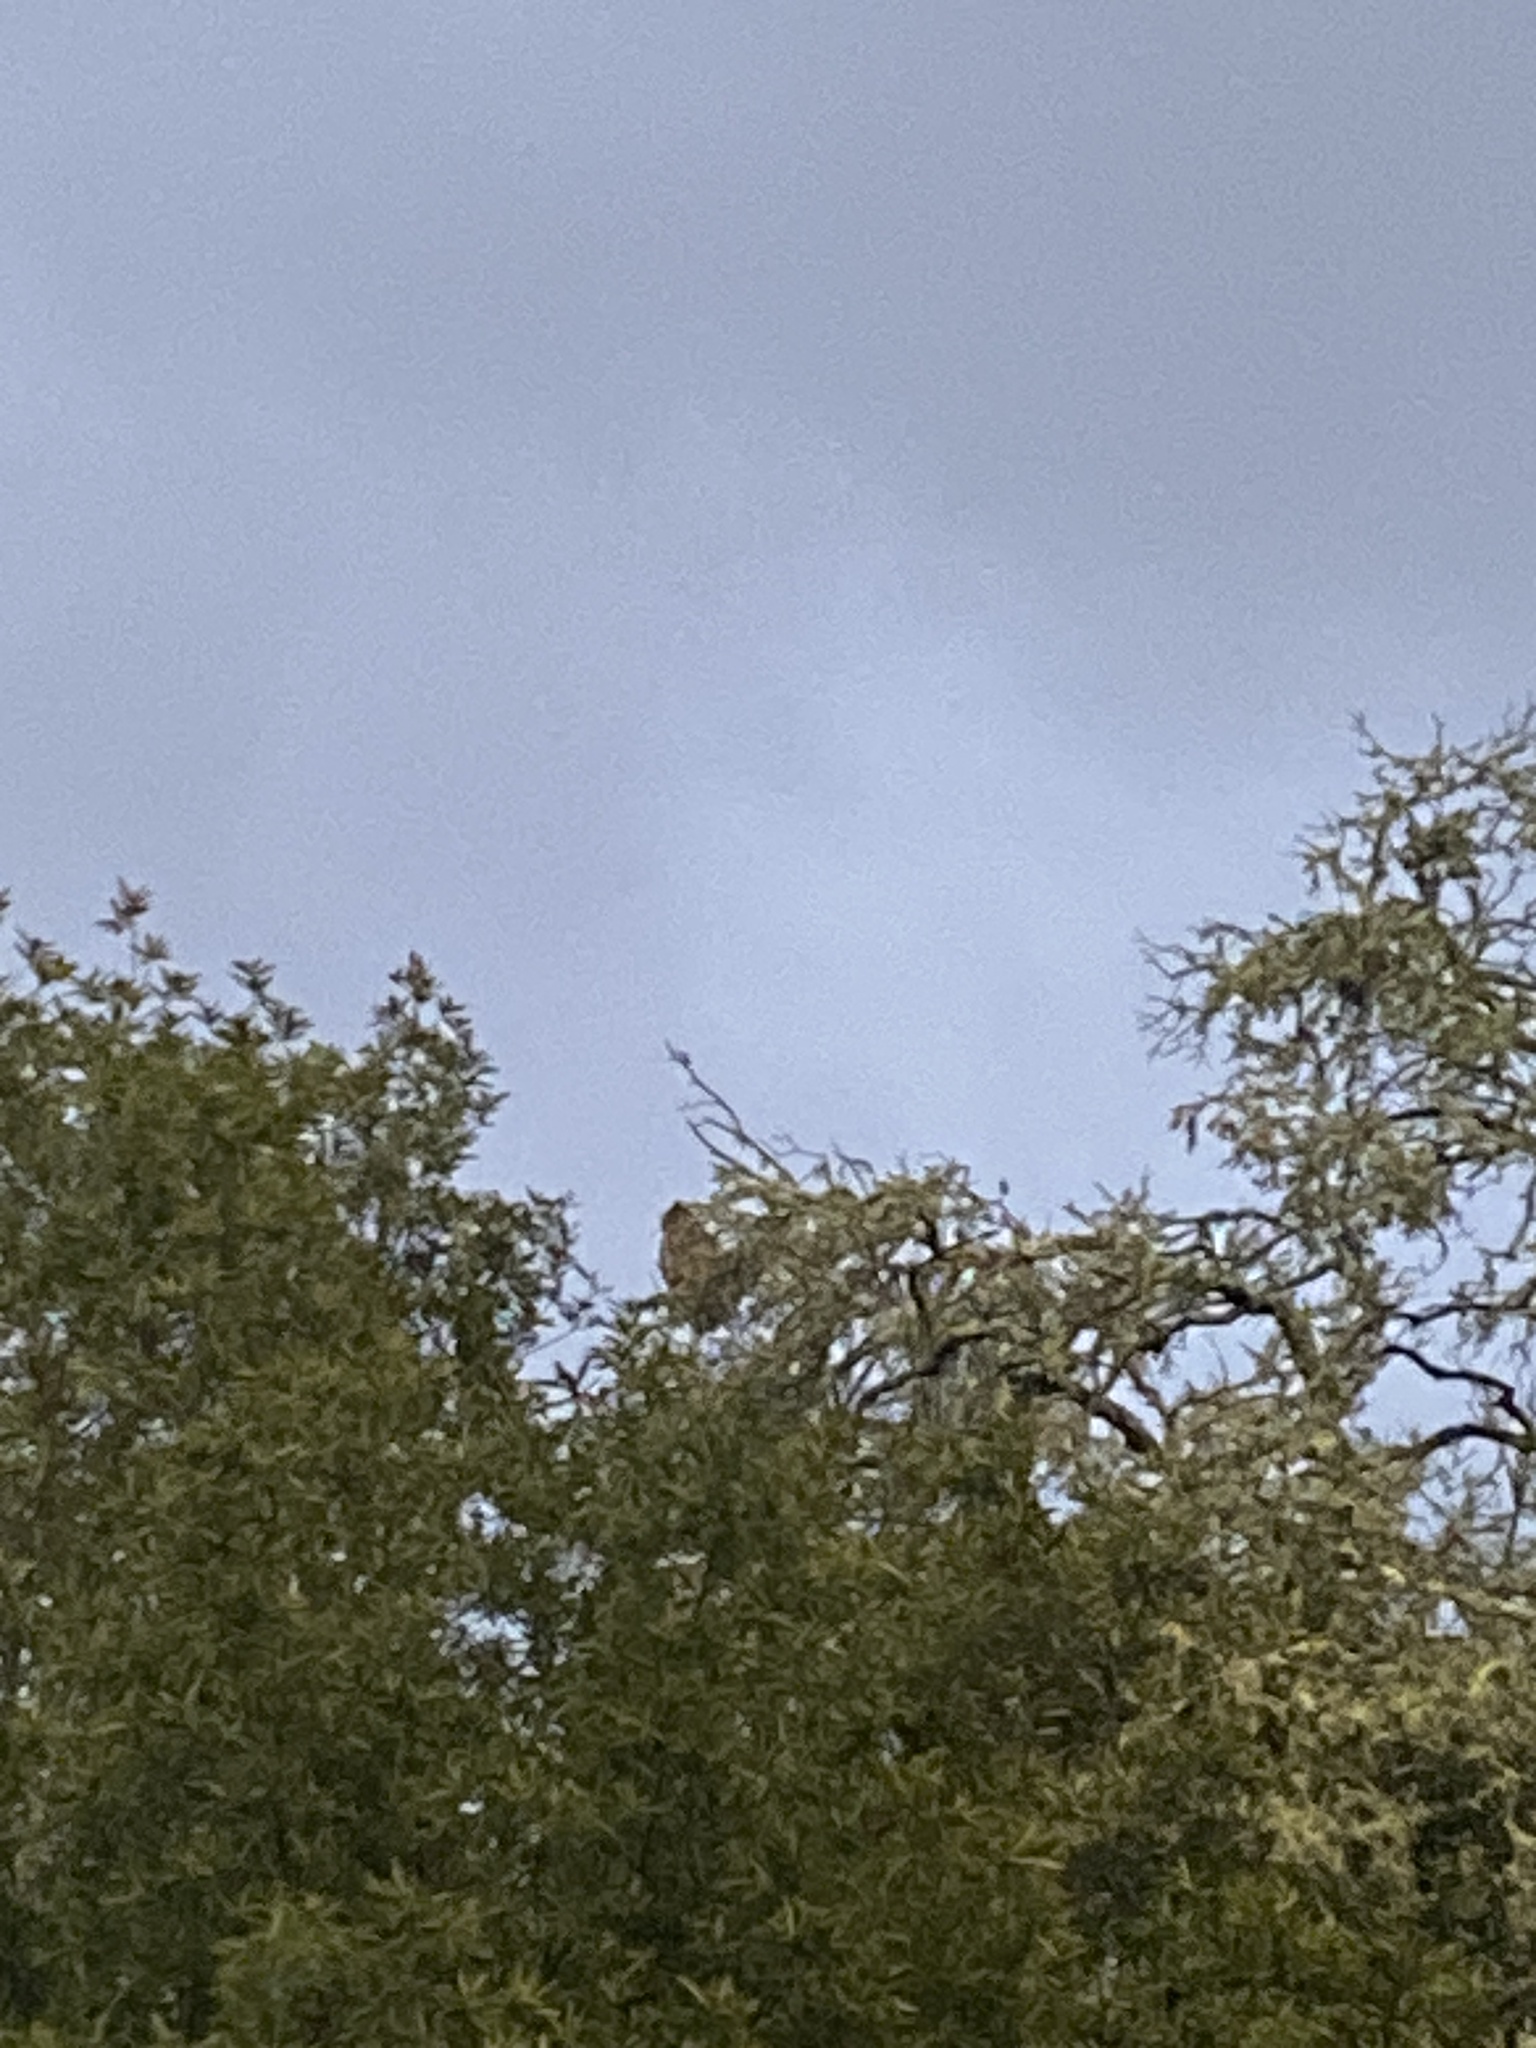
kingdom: Animalia
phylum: Chordata
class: Aves
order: Strigiformes
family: Strigidae
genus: Bubo
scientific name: Bubo virginianus
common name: Great horned owl
